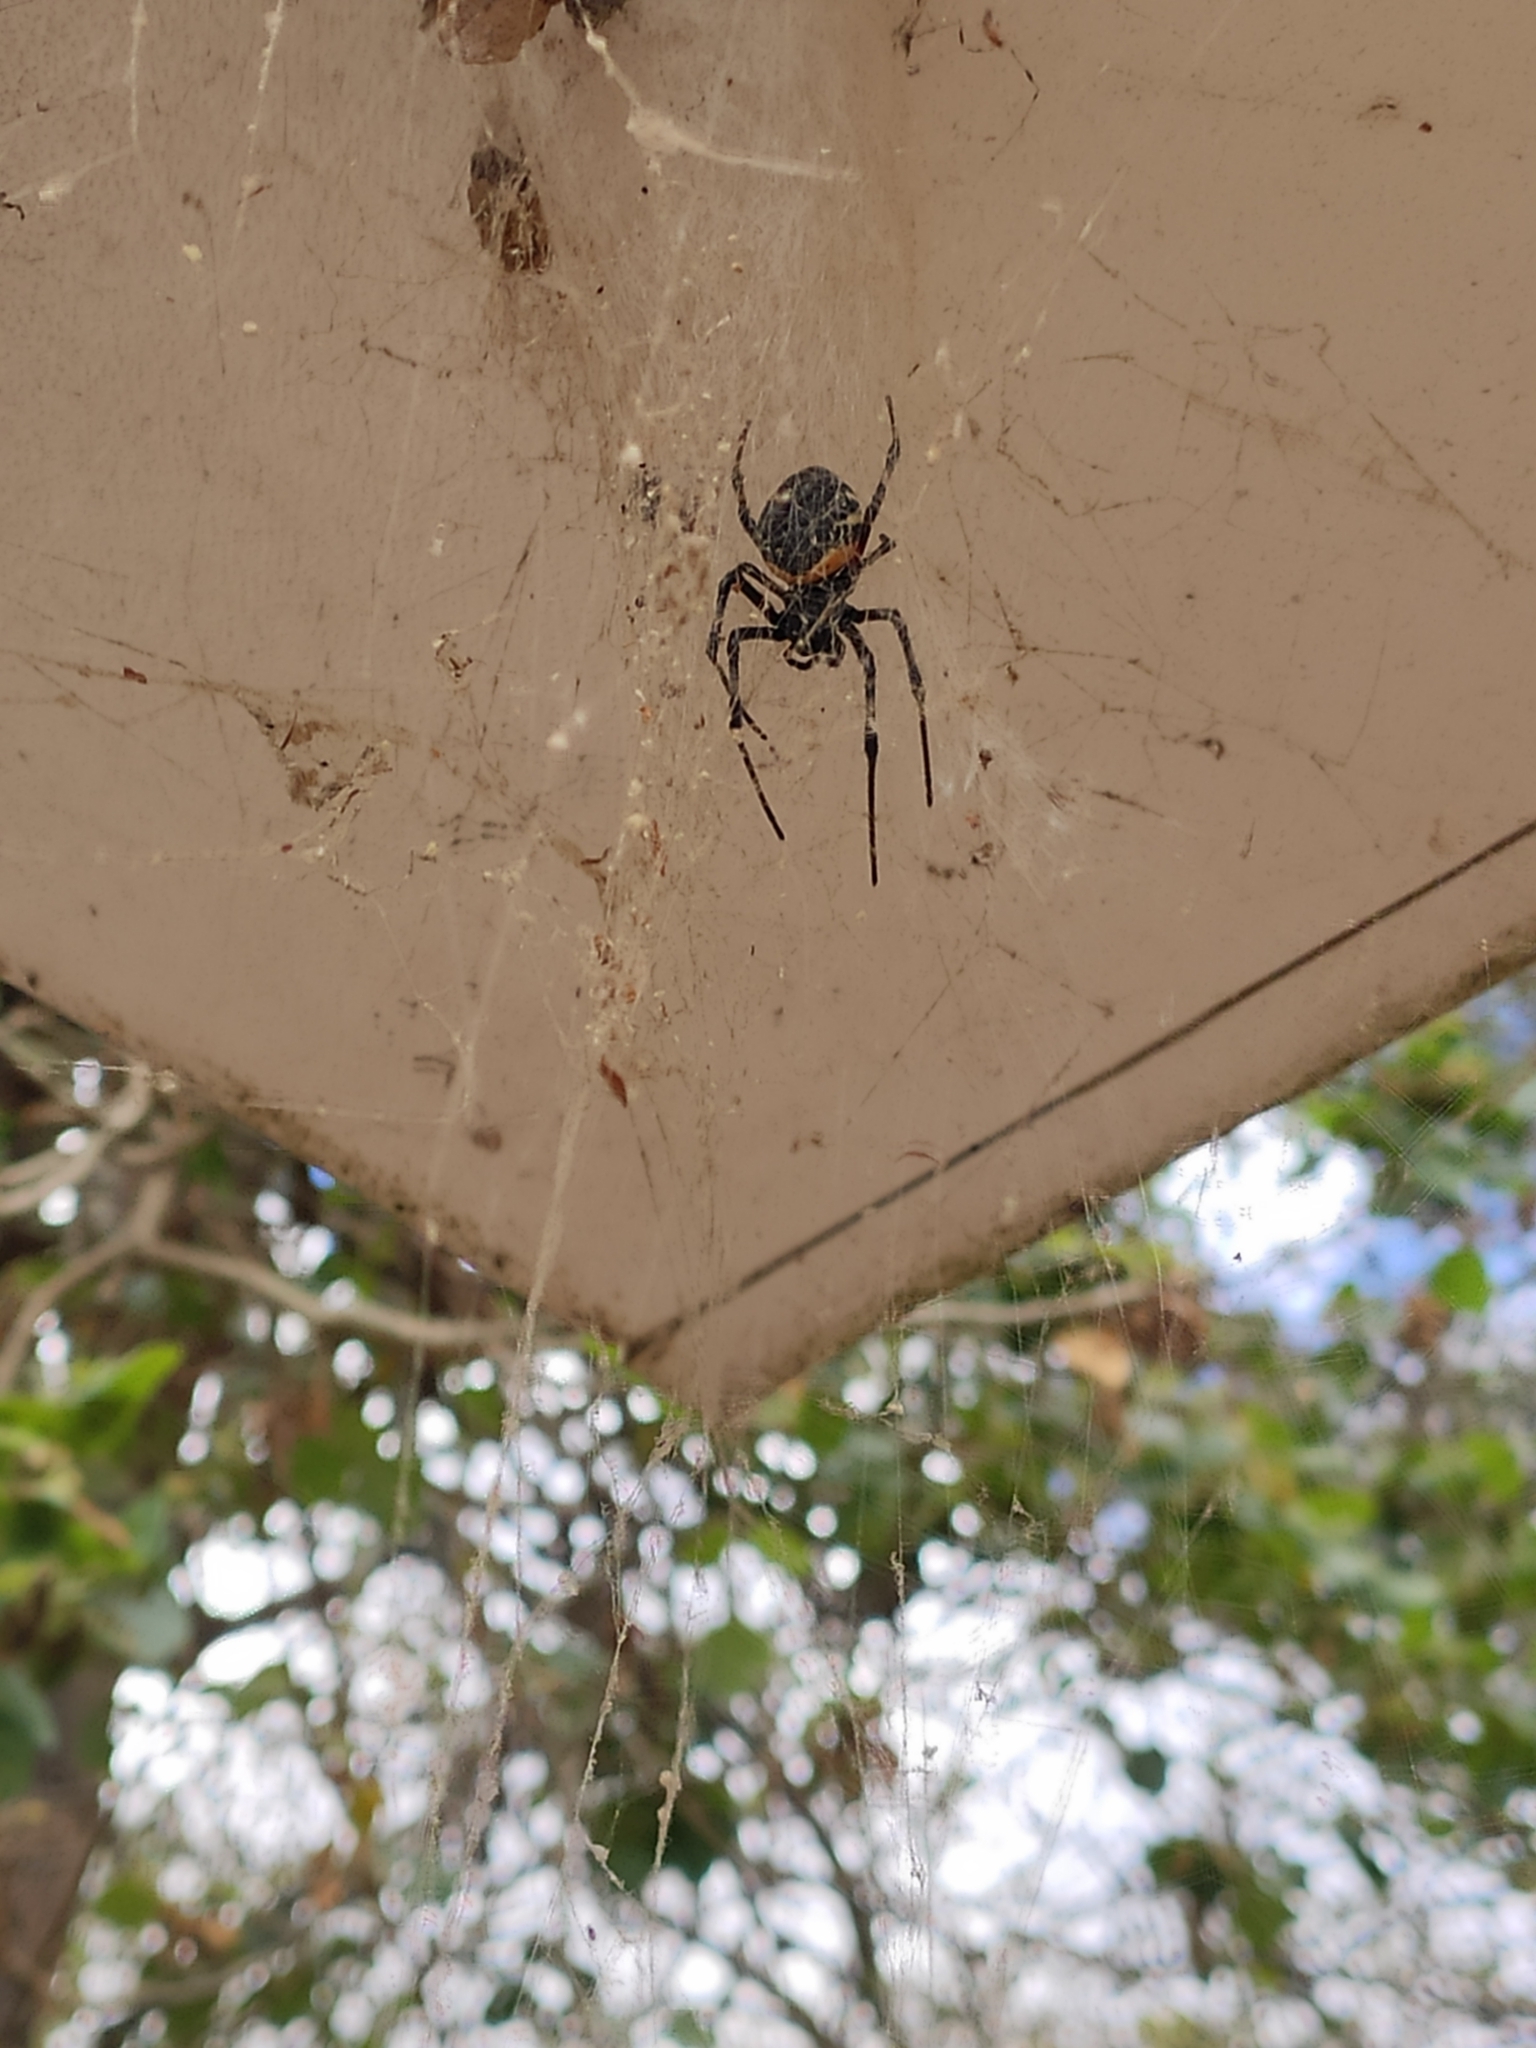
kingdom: Animalia
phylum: Arthropoda
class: Arachnida
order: Araneae
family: Araneidae
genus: Nephilingis
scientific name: Nephilingis cruentata
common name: African hermit spider
